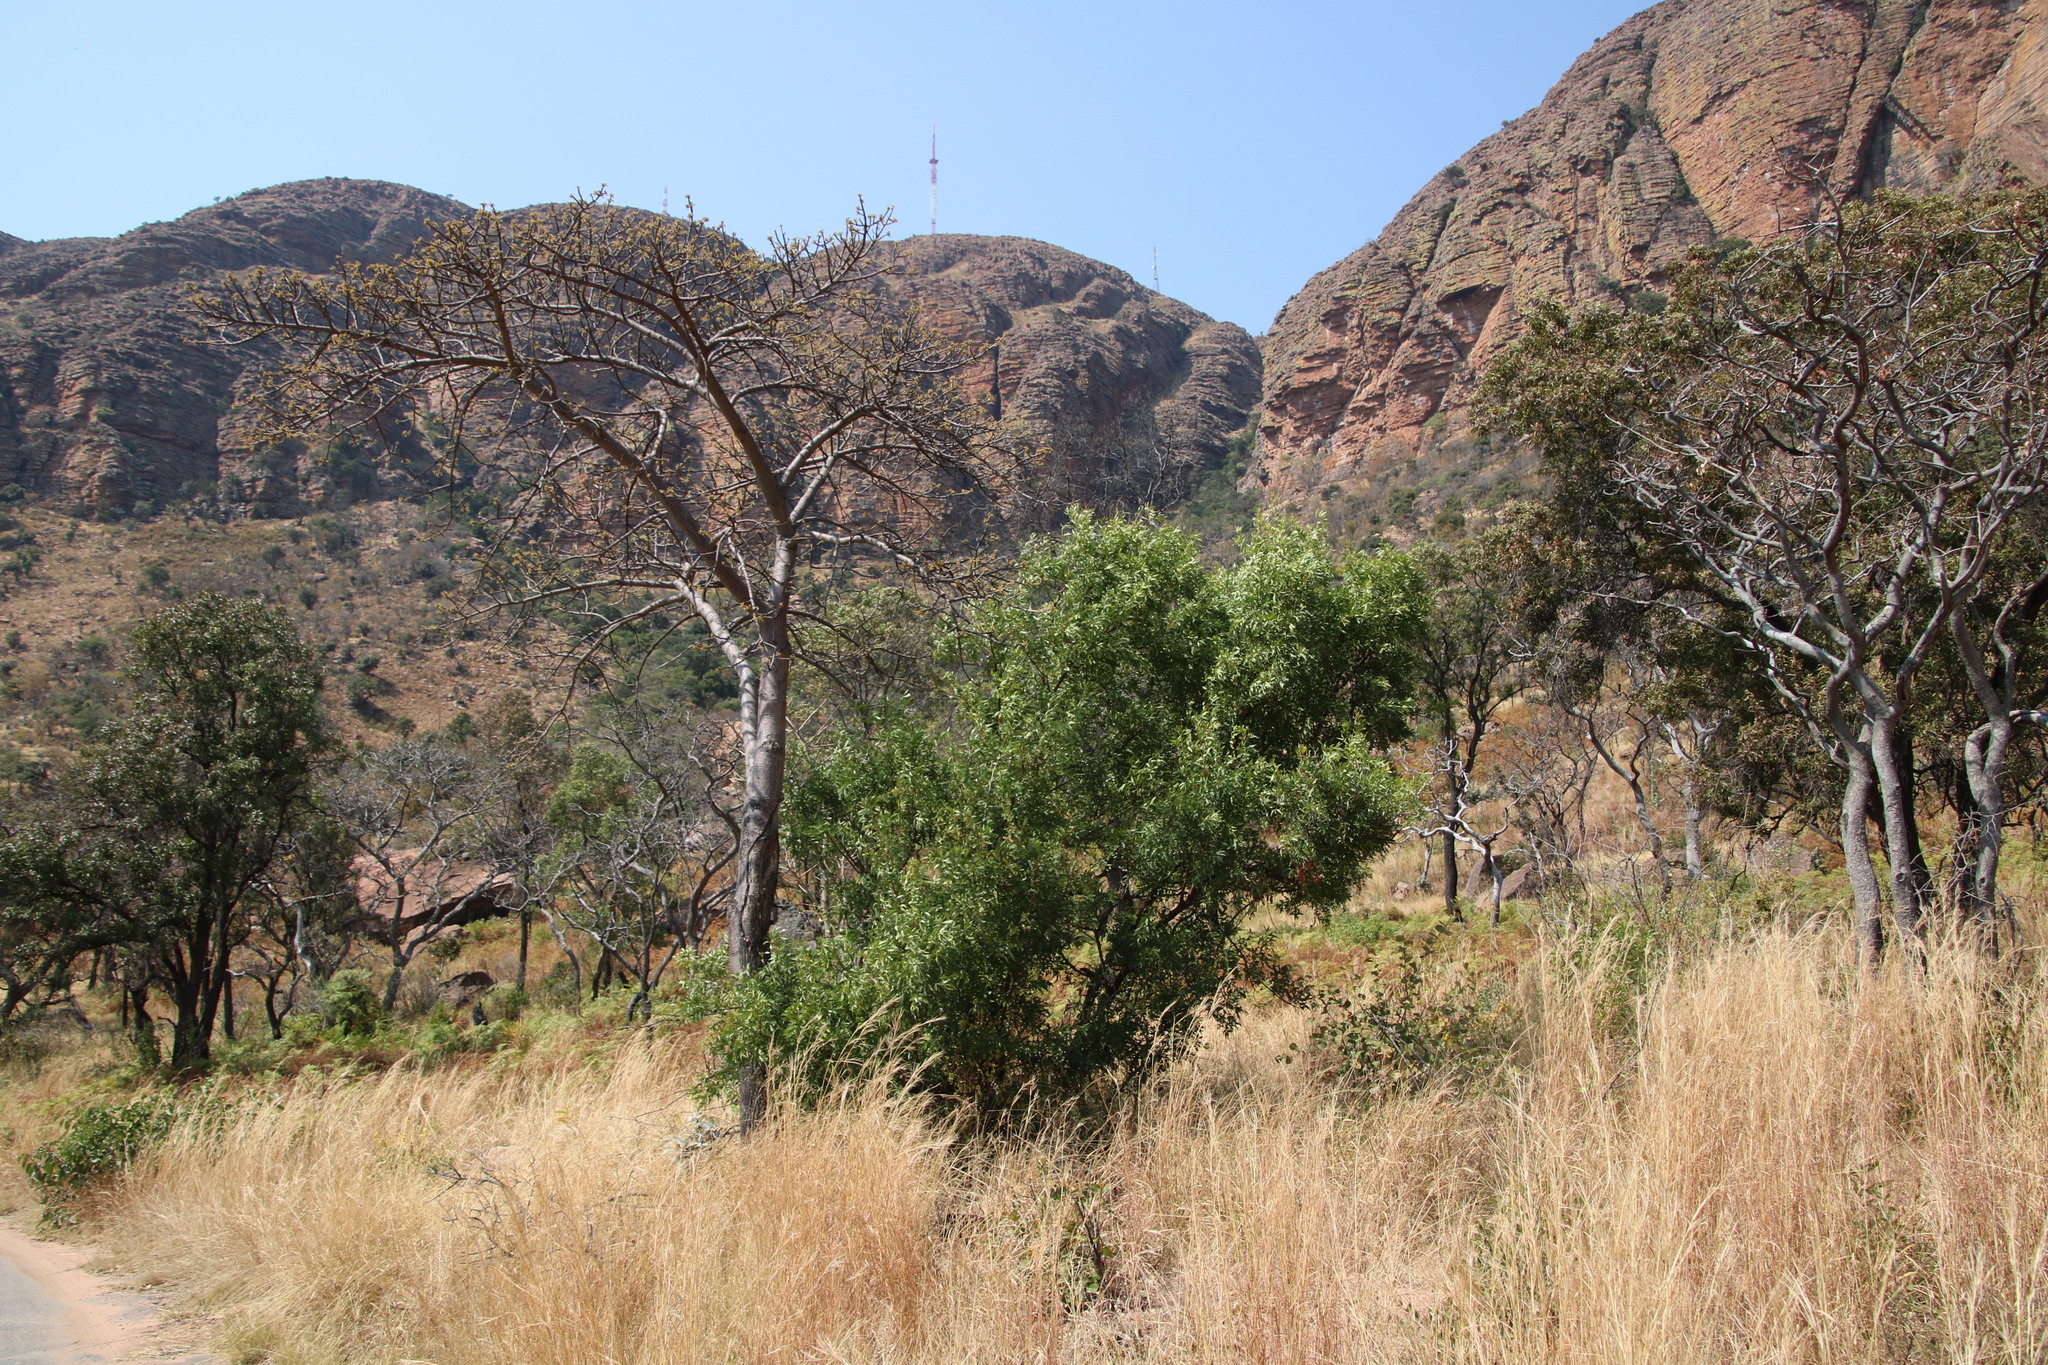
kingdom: Plantae
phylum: Tracheophyta
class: Magnoliopsida
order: Sapindales
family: Anacardiaceae
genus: Searsia
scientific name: Searsia lancea
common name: Cashew
